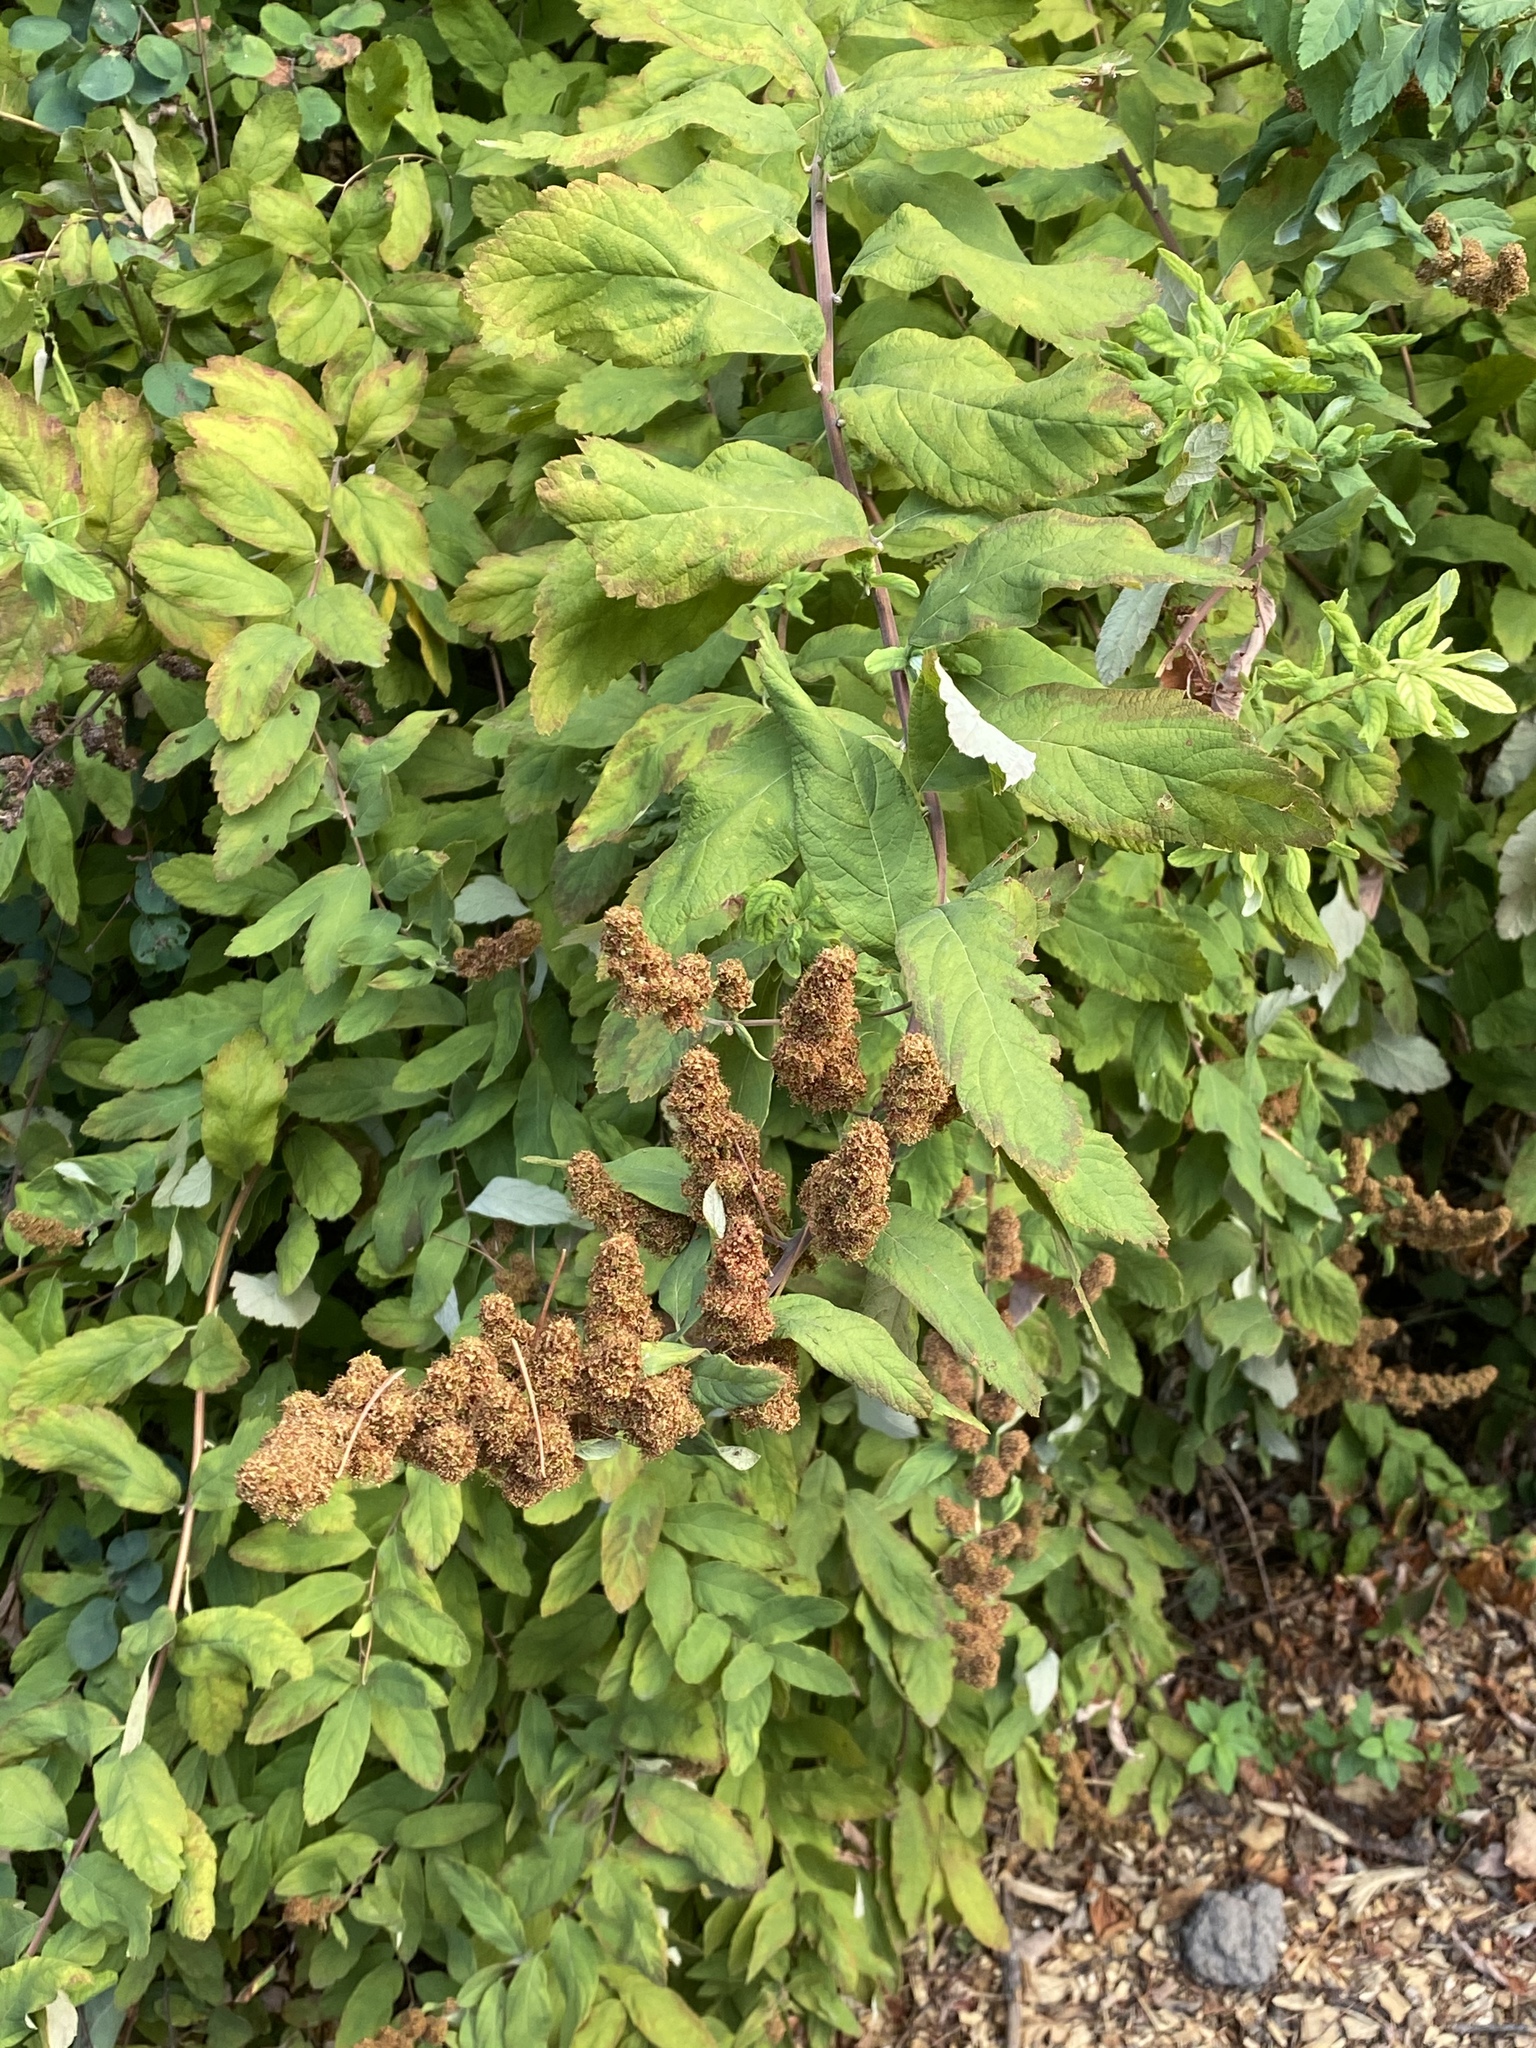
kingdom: Plantae
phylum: Tracheophyta
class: Magnoliopsida
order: Rosales
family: Rosaceae
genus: Spiraea
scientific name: Spiraea douglasii
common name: Steeplebush
